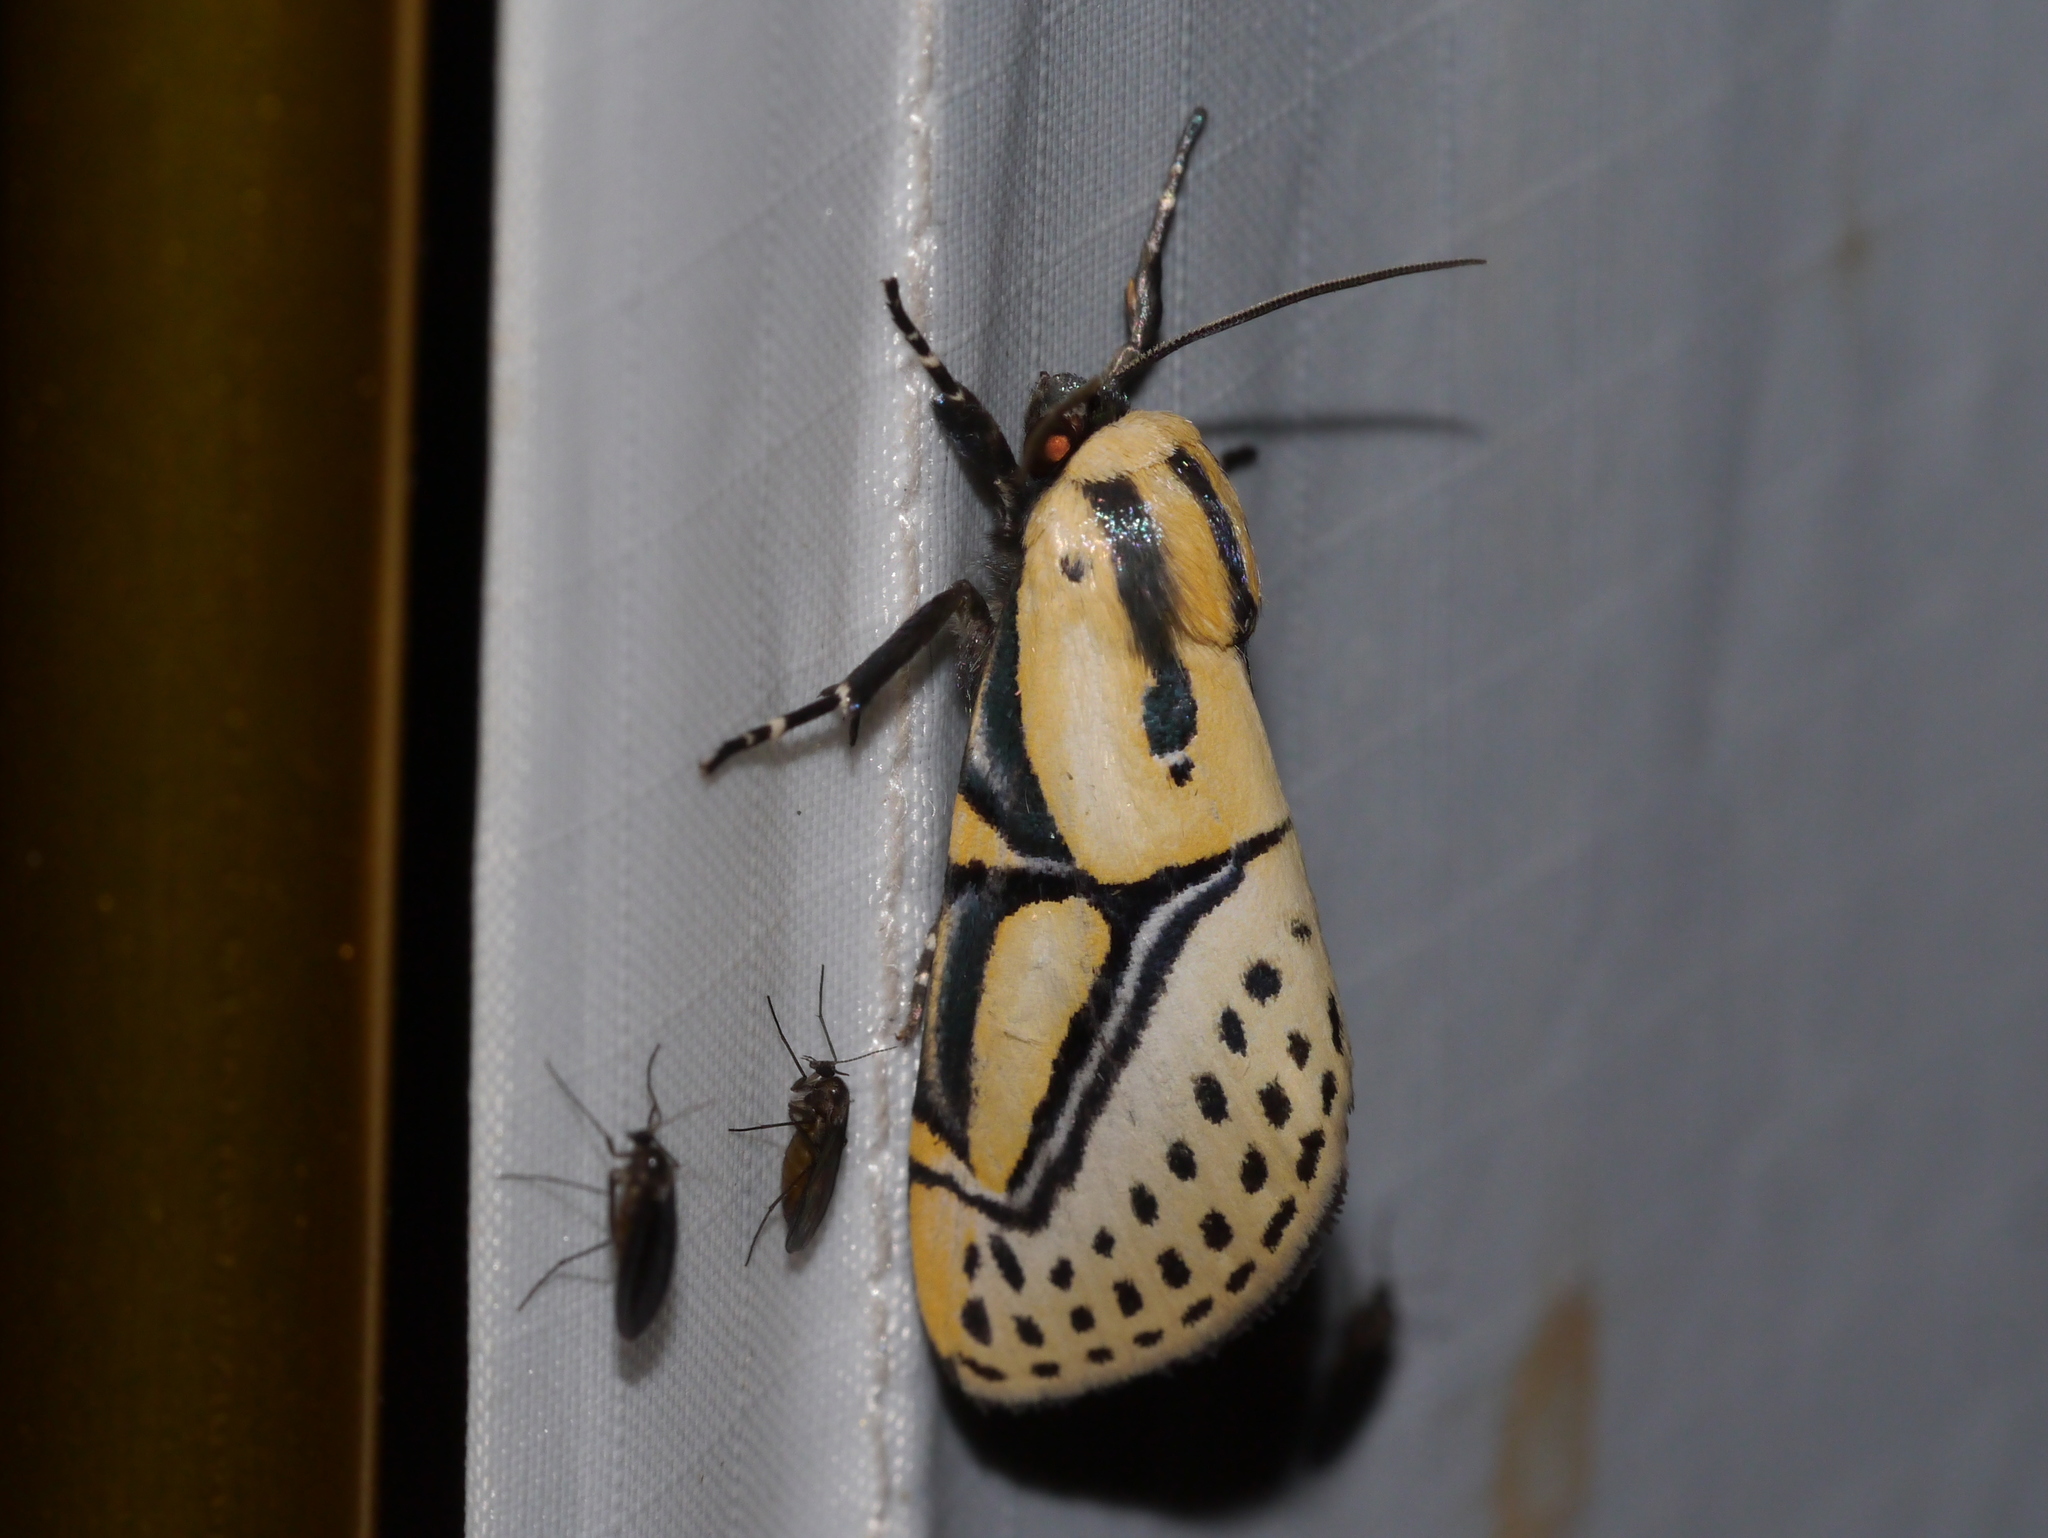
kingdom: Animalia
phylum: Arthropoda
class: Insecta
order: Lepidoptera
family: Erebidae
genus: Diphthera
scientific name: Diphthera festiva
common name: Hieroglyphic moth
